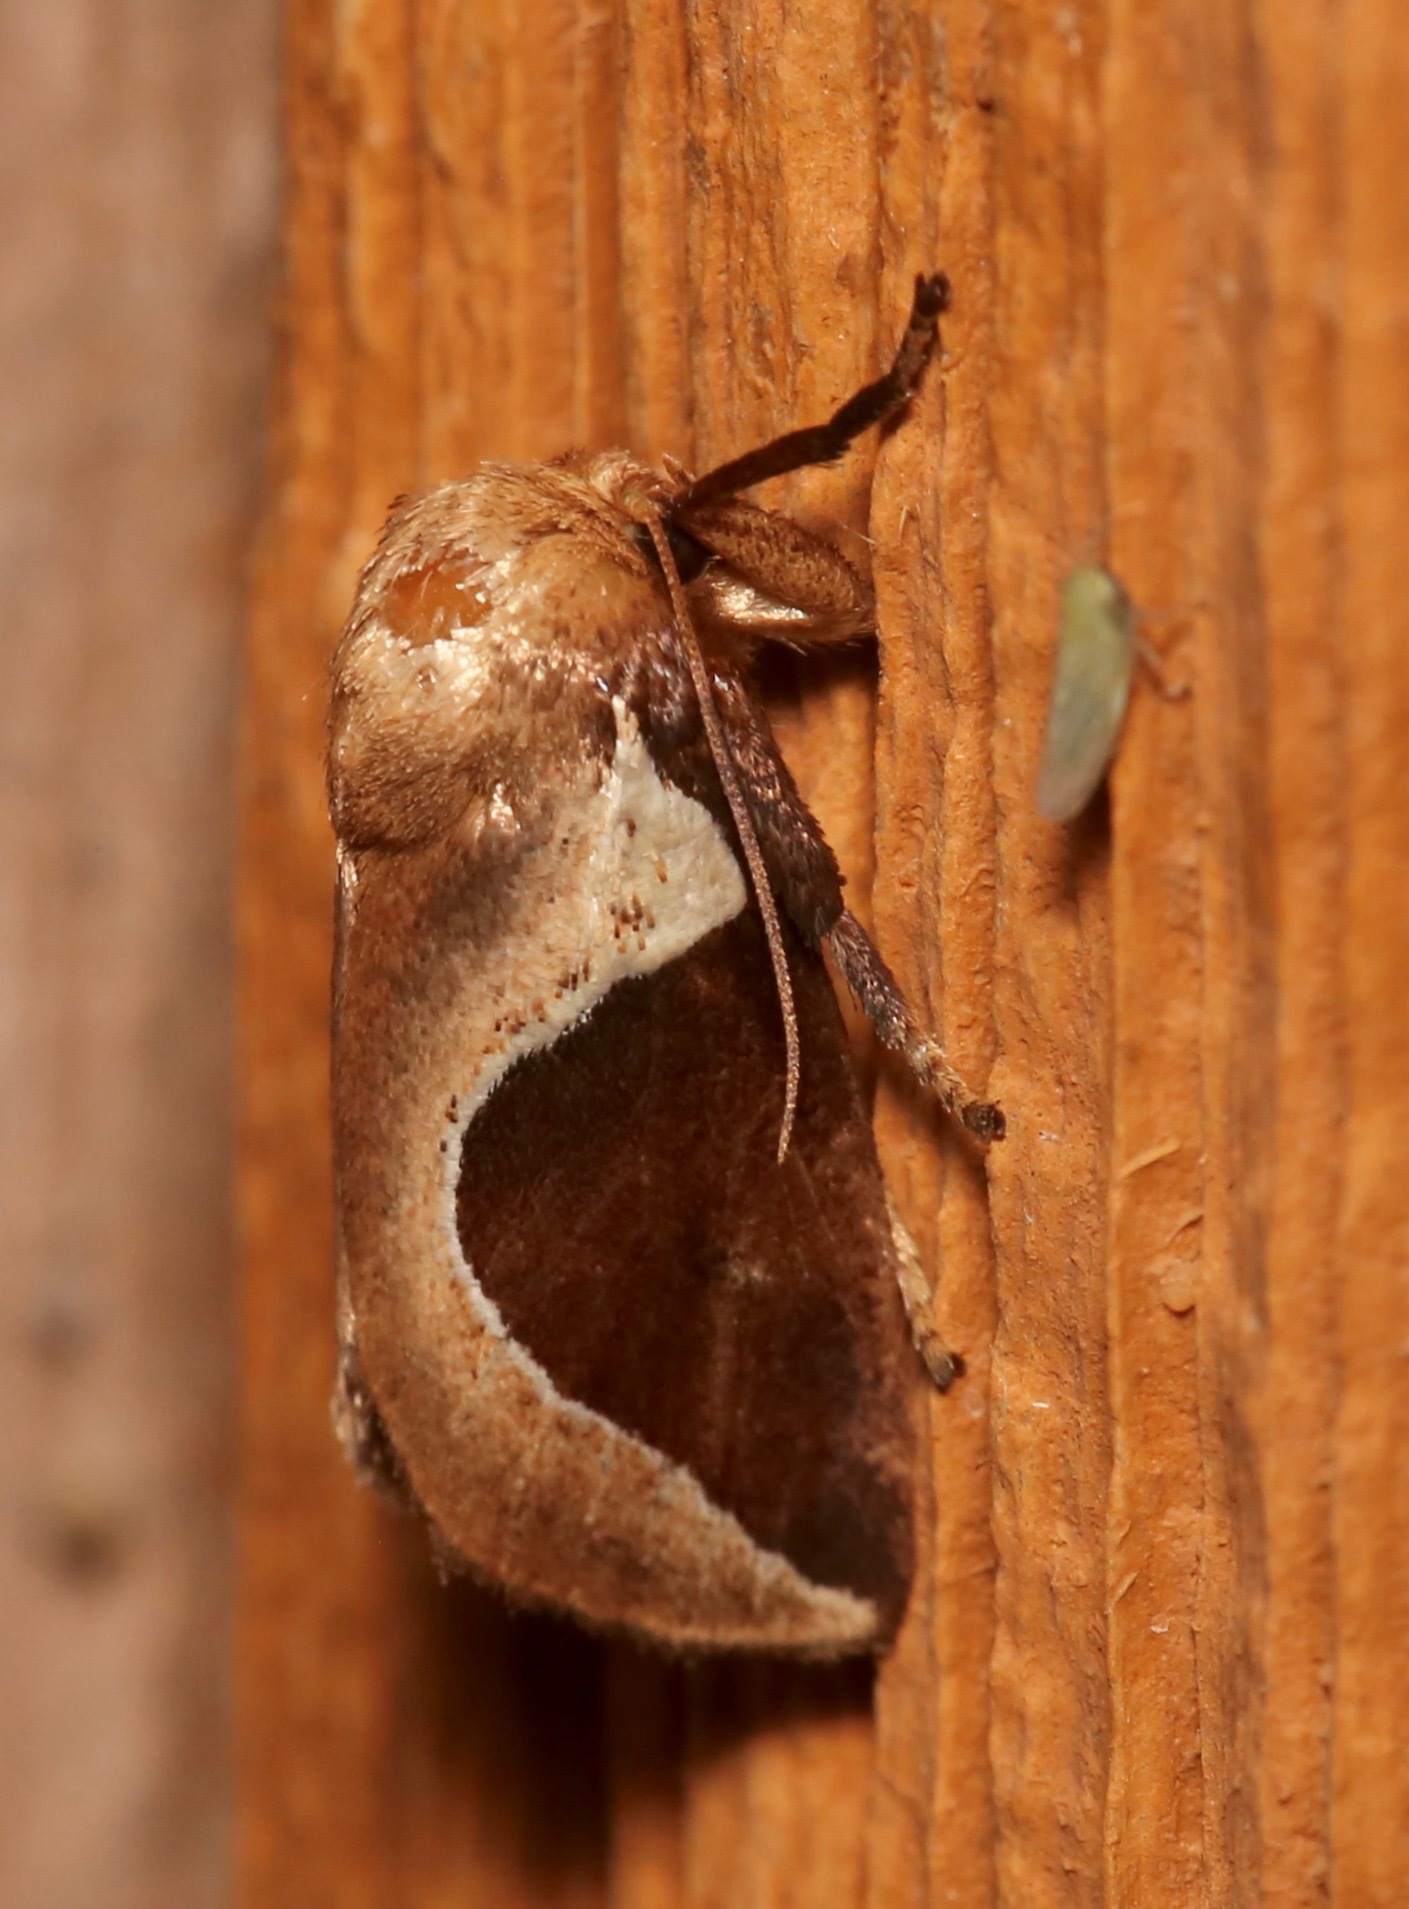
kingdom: Animalia
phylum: Arthropoda
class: Insecta
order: Lepidoptera
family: Limacodidae
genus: Prolimacodes
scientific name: Prolimacodes badia
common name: Skiff moth
